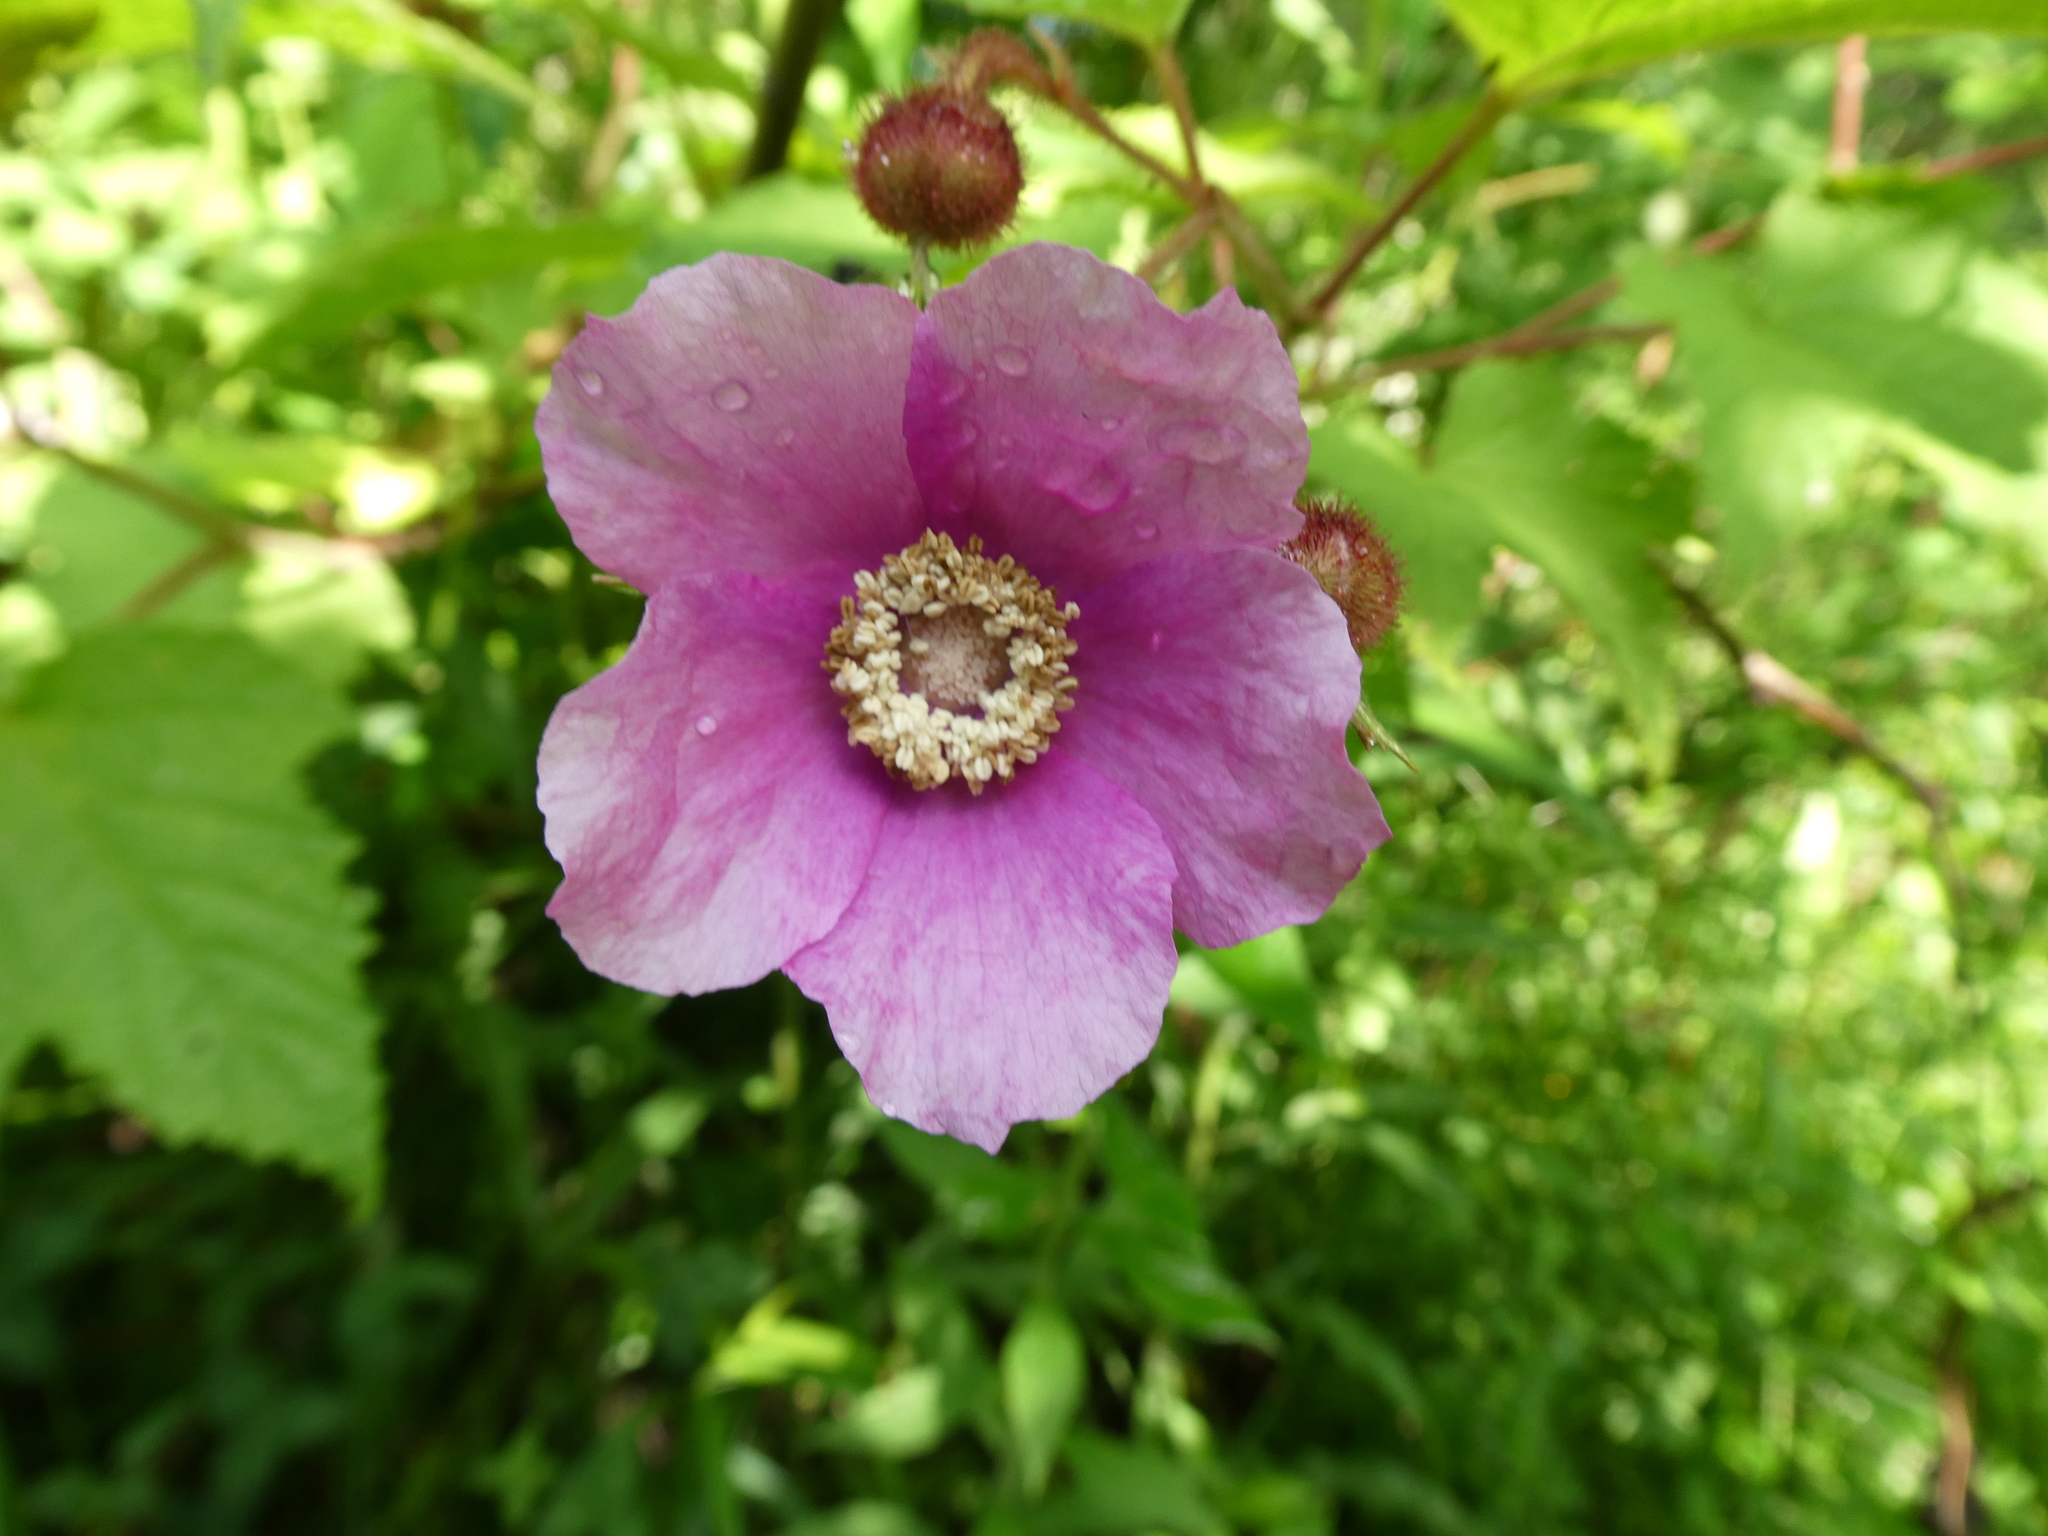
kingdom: Plantae
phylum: Tracheophyta
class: Magnoliopsida
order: Rosales
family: Rosaceae
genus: Rubus
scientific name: Rubus odoratus
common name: Purple-flowered raspberry
